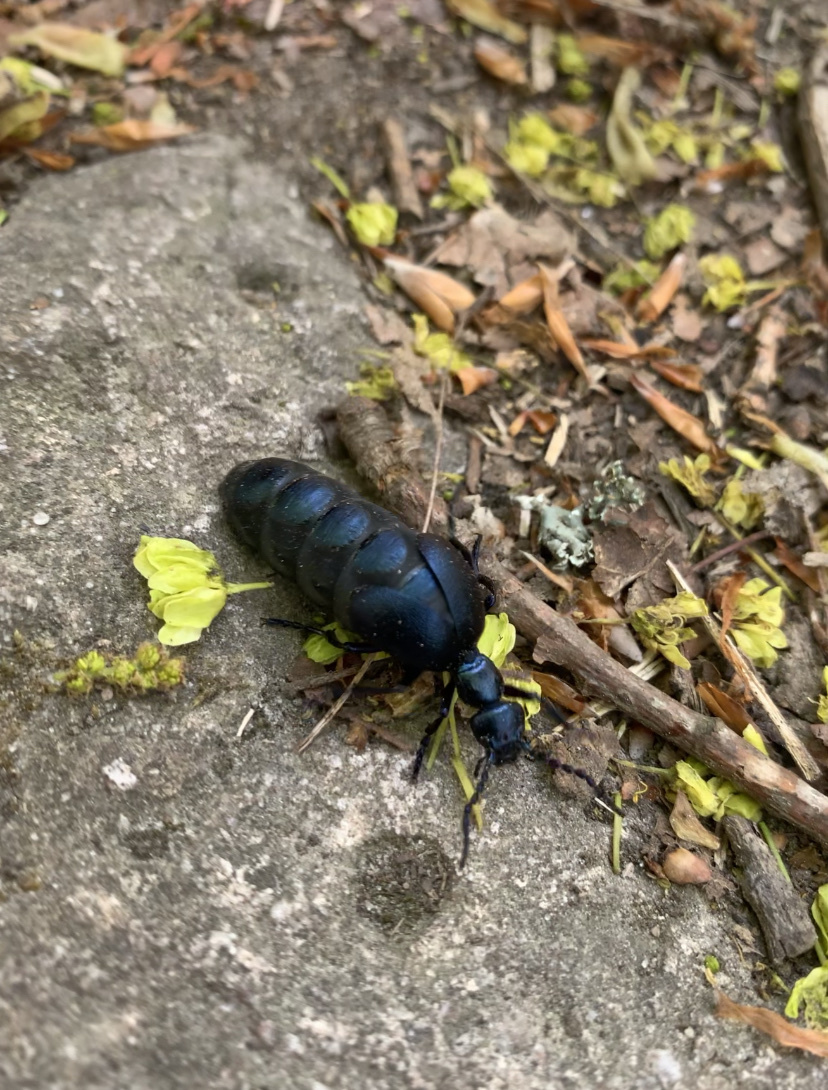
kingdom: Animalia
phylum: Arthropoda
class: Insecta
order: Coleoptera
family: Meloidae
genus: Meloe
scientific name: Meloe violaceus
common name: Violet oil-beetle
